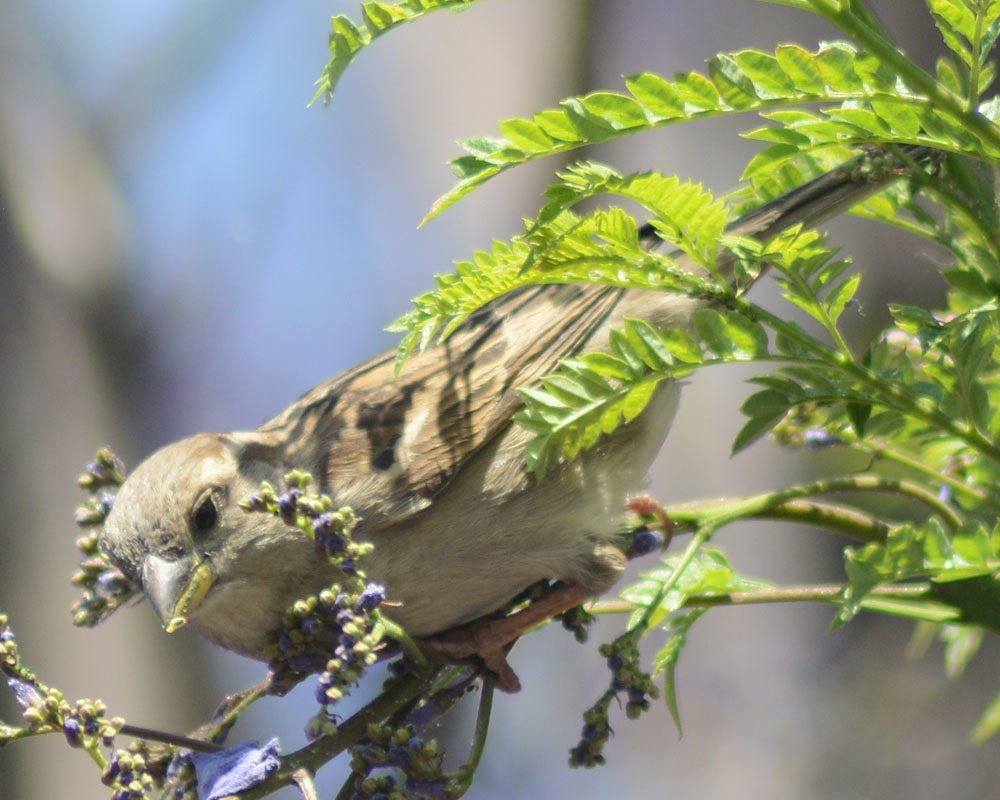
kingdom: Animalia
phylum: Chordata
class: Aves
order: Passeriformes
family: Passeridae
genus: Passer
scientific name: Passer domesticus
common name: House sparrow
